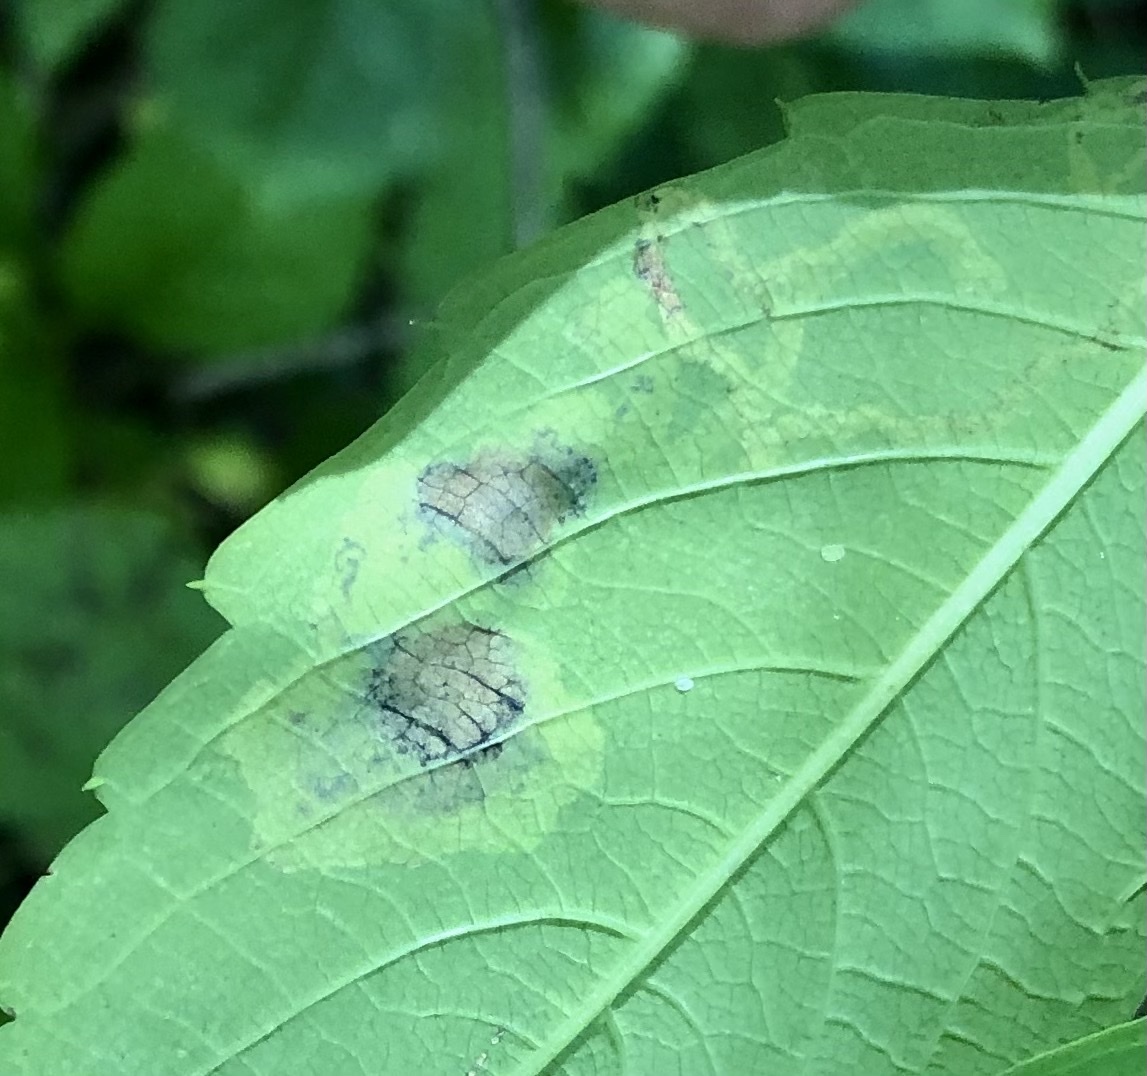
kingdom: Animalia
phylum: Arthropoda
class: Insecta
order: Diptera
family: Agromyzidae
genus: Phytoliriomyza
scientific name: Phytoliriomyza melampyga
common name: Jewelweed leaf-miner fly
